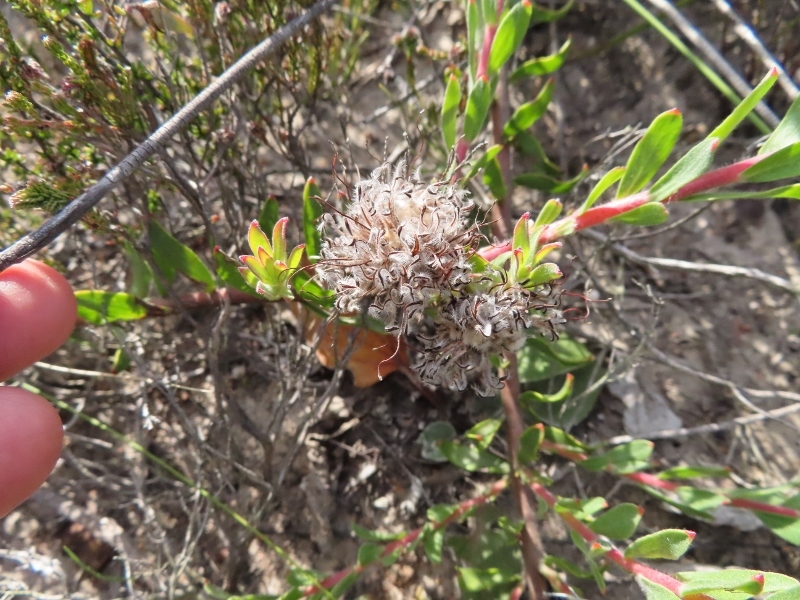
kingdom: Plantae
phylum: Tracheophyta
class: Magnoliopsida
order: Proteales
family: Proteaceae
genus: Leucospermum
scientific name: Leucospermum heterophyllum
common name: Trident pincushion
